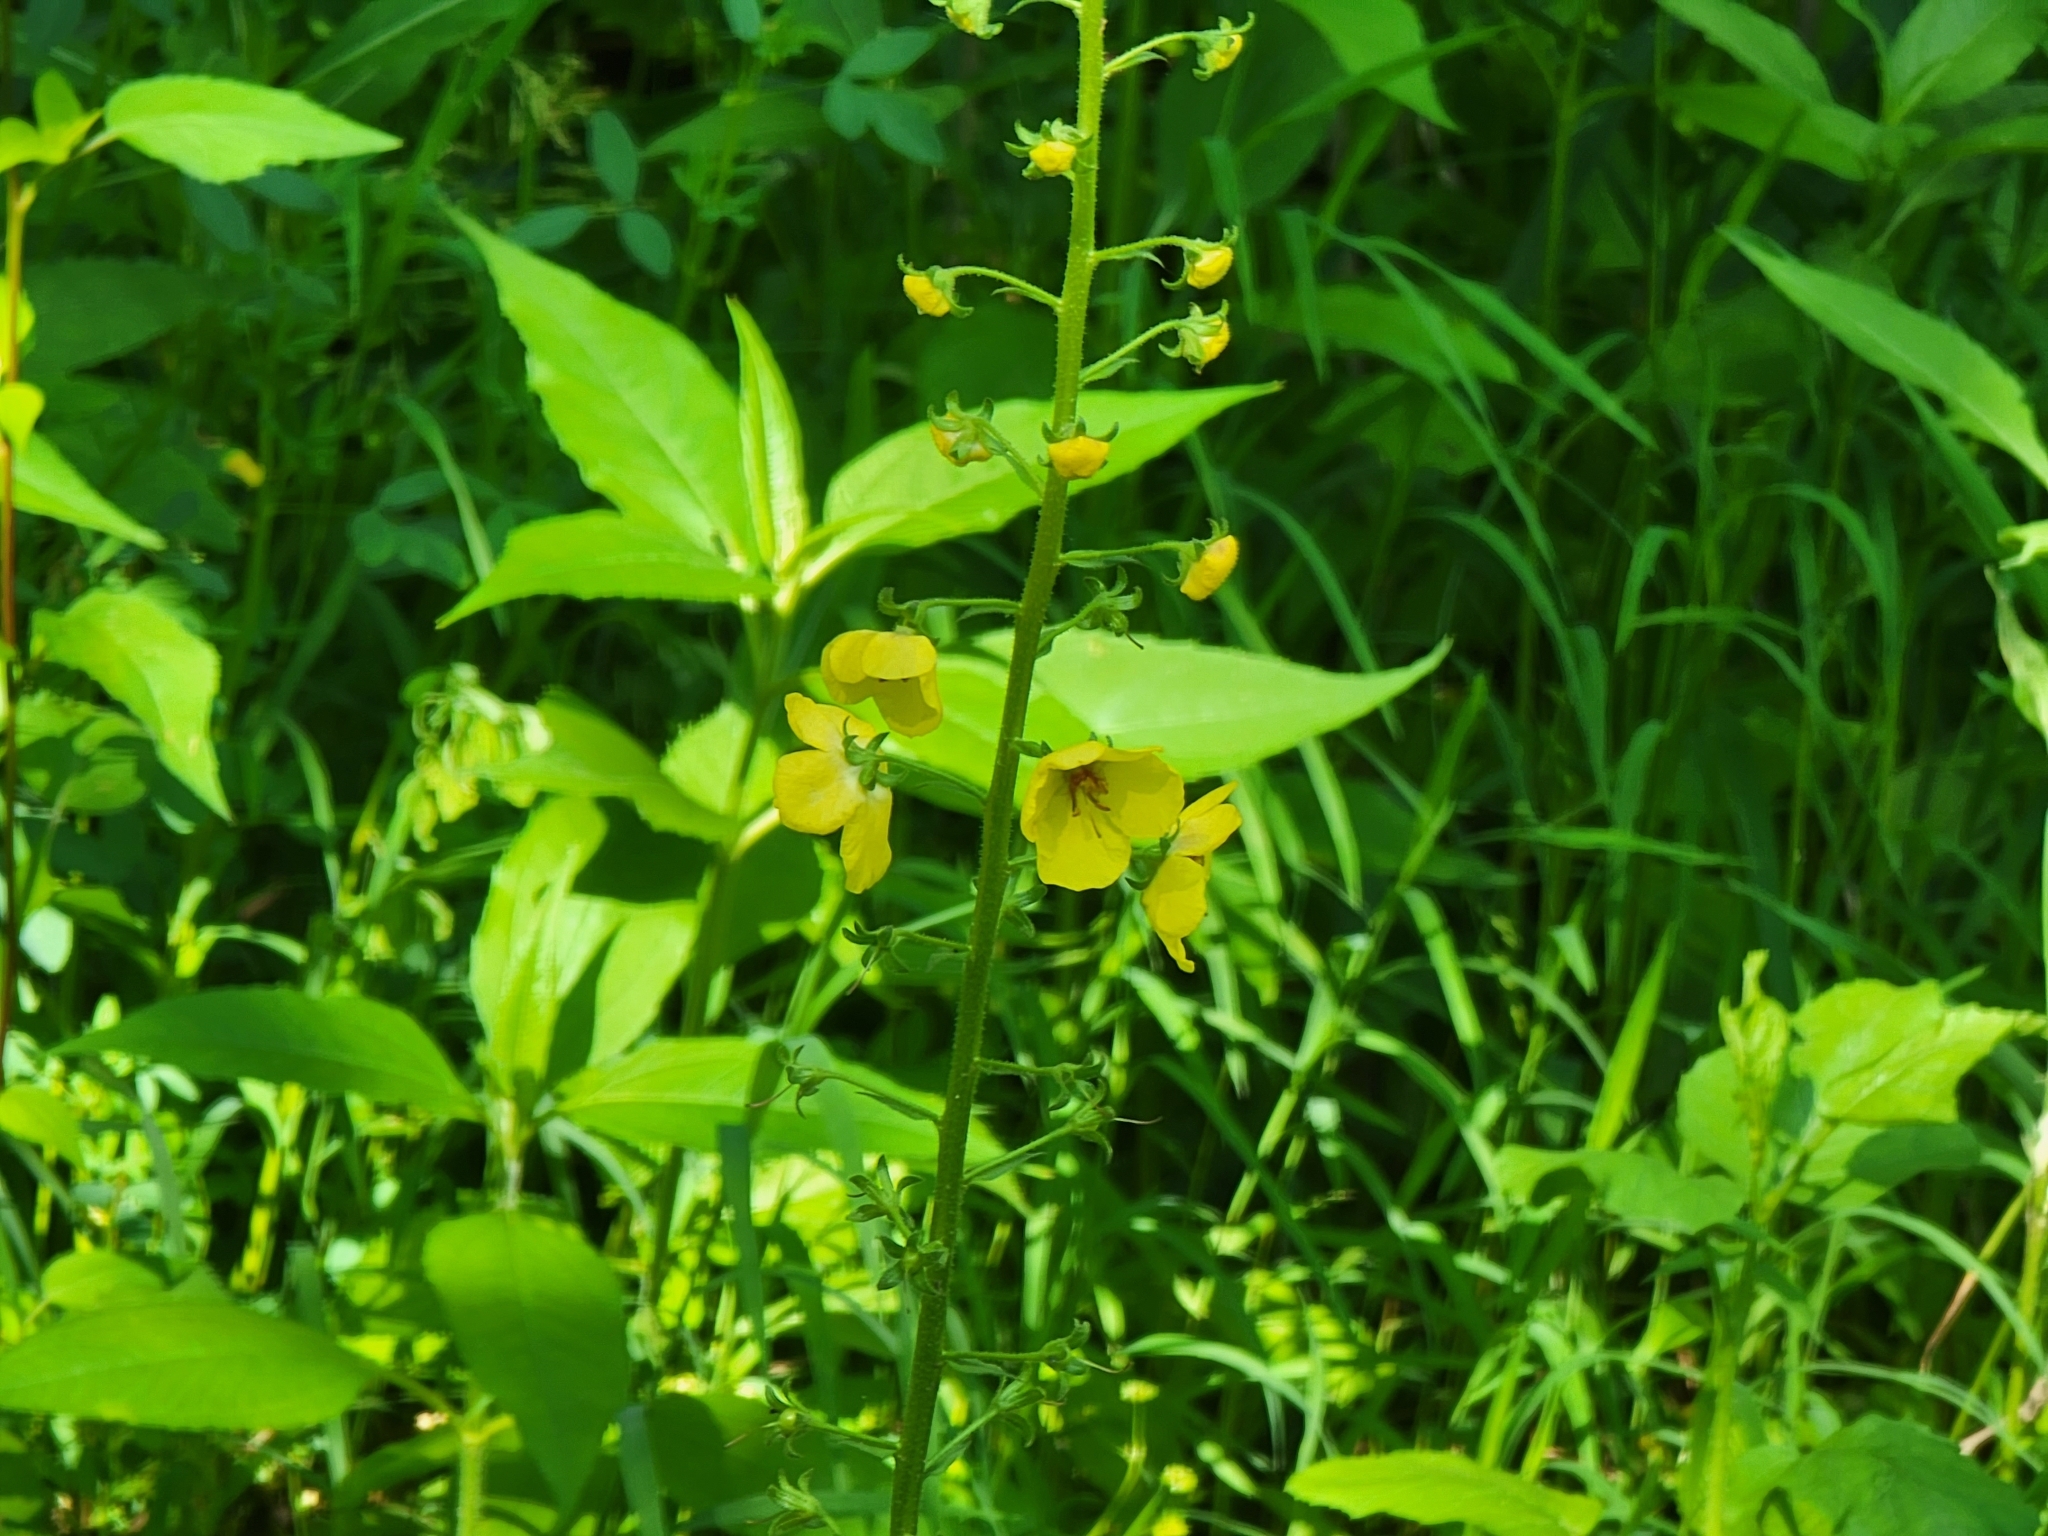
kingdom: Plantae
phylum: Tracheophyta
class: Magnoliopsida
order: Lamiales
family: Scrophulariaceae
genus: Verbascum
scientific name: Verbascum blattaria
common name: Moth mullein
